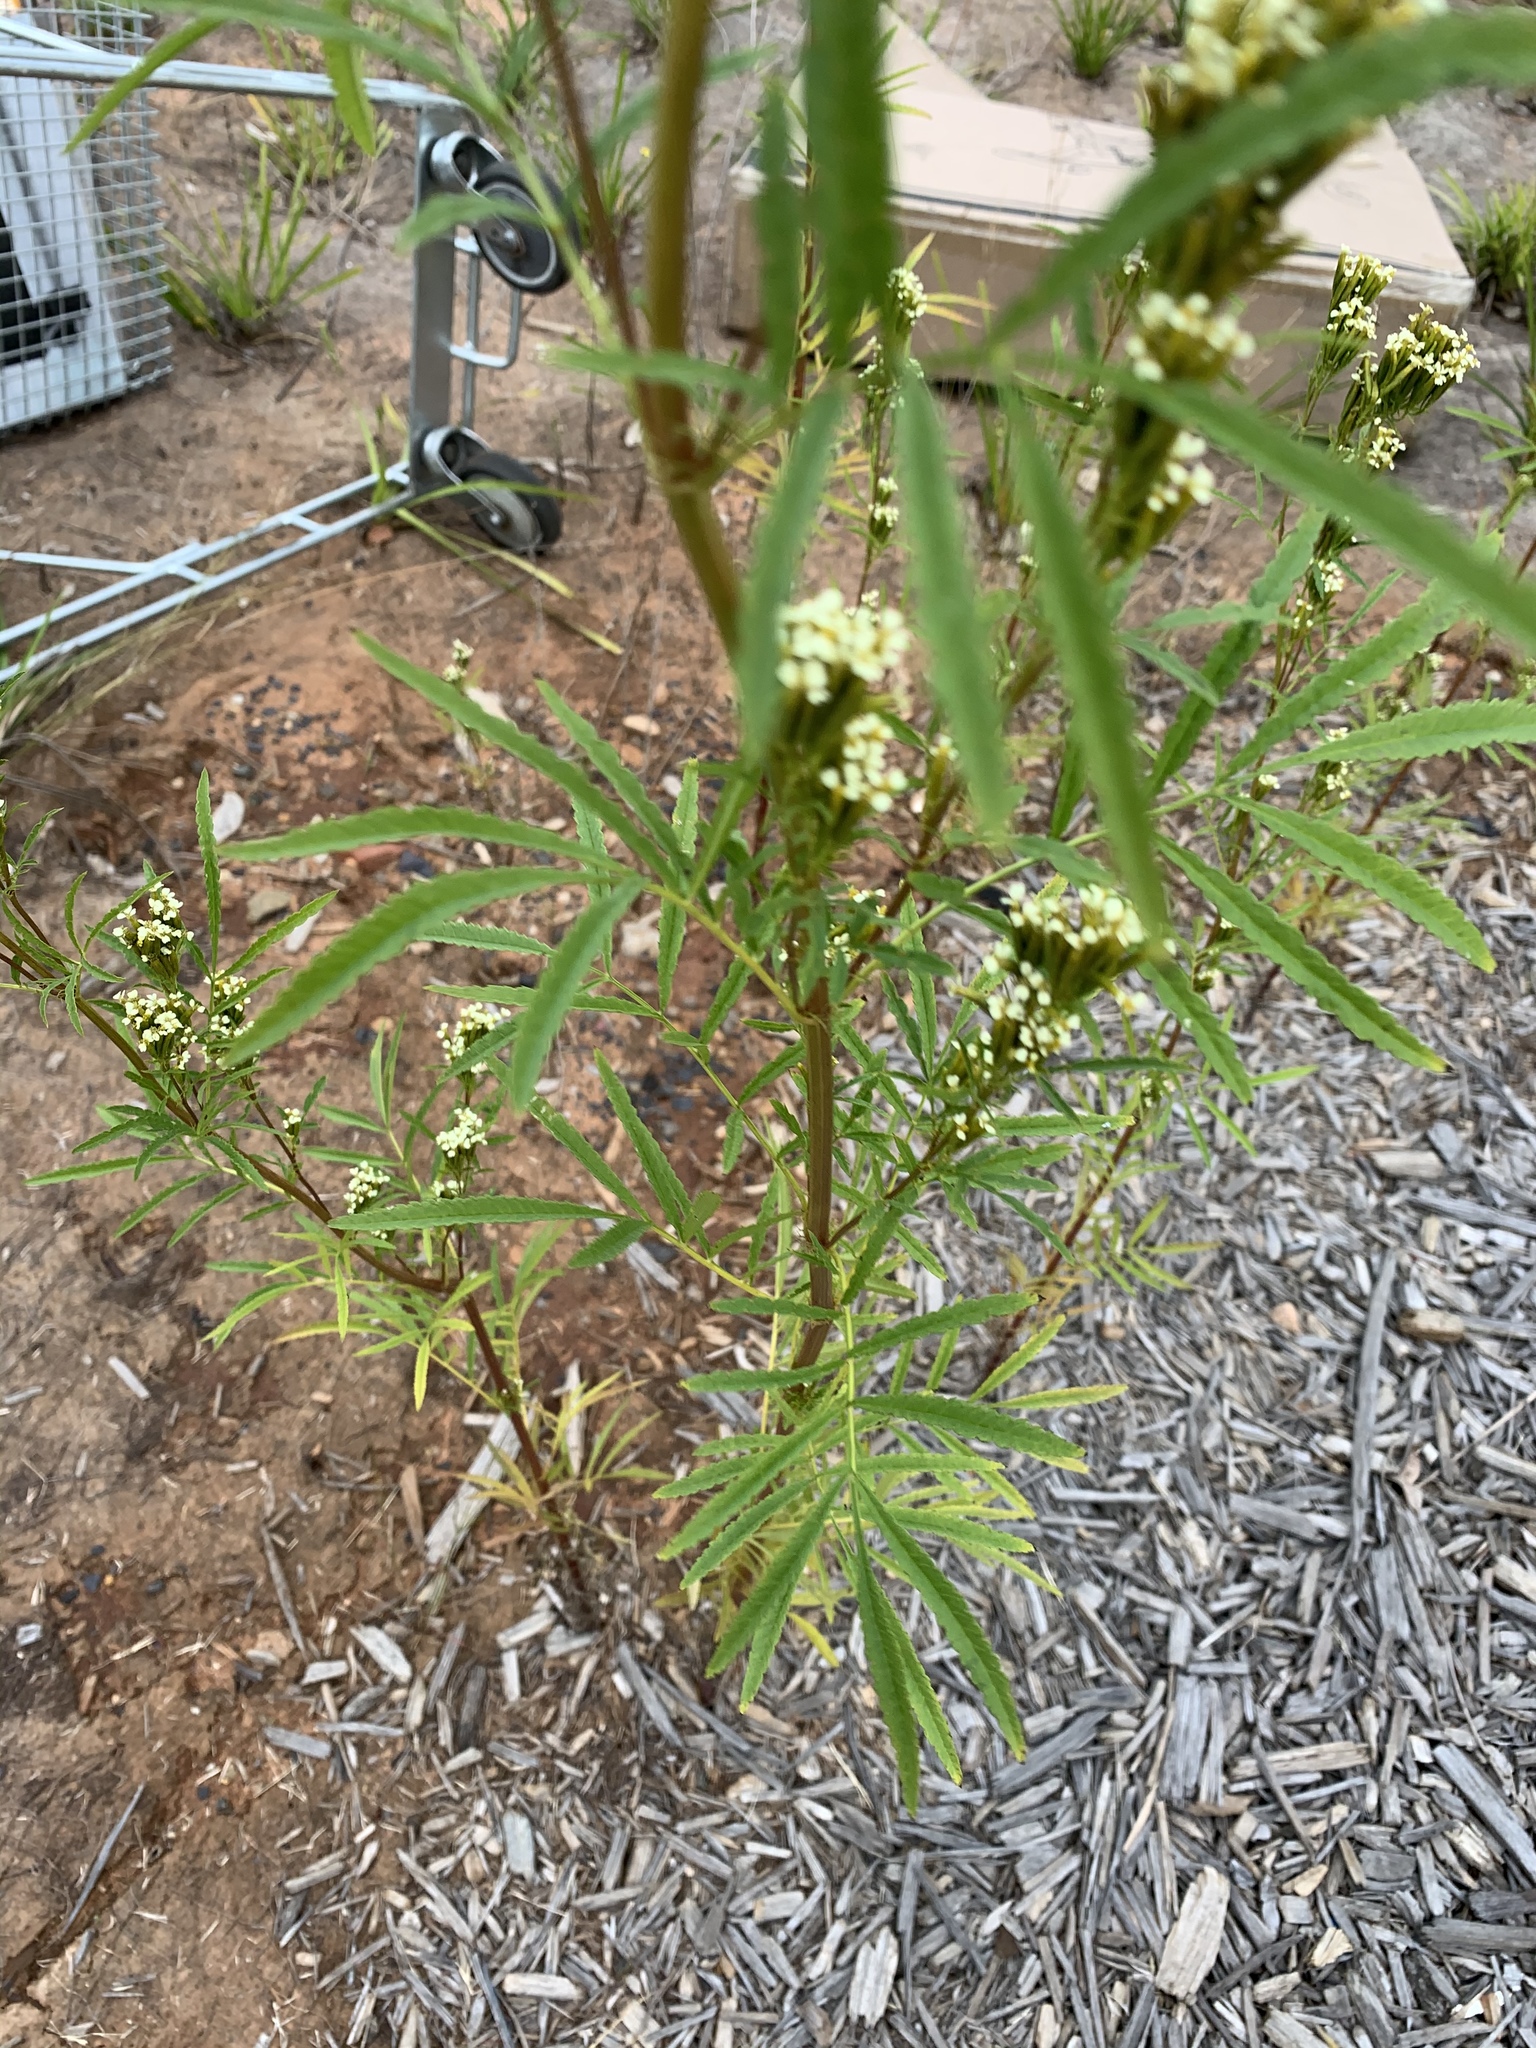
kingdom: Plantae
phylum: Tracheophyta
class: Magnoliopsida
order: Asterales
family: Asteraceae
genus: Tagetes
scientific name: Tagetes minuta
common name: Muster john henry
